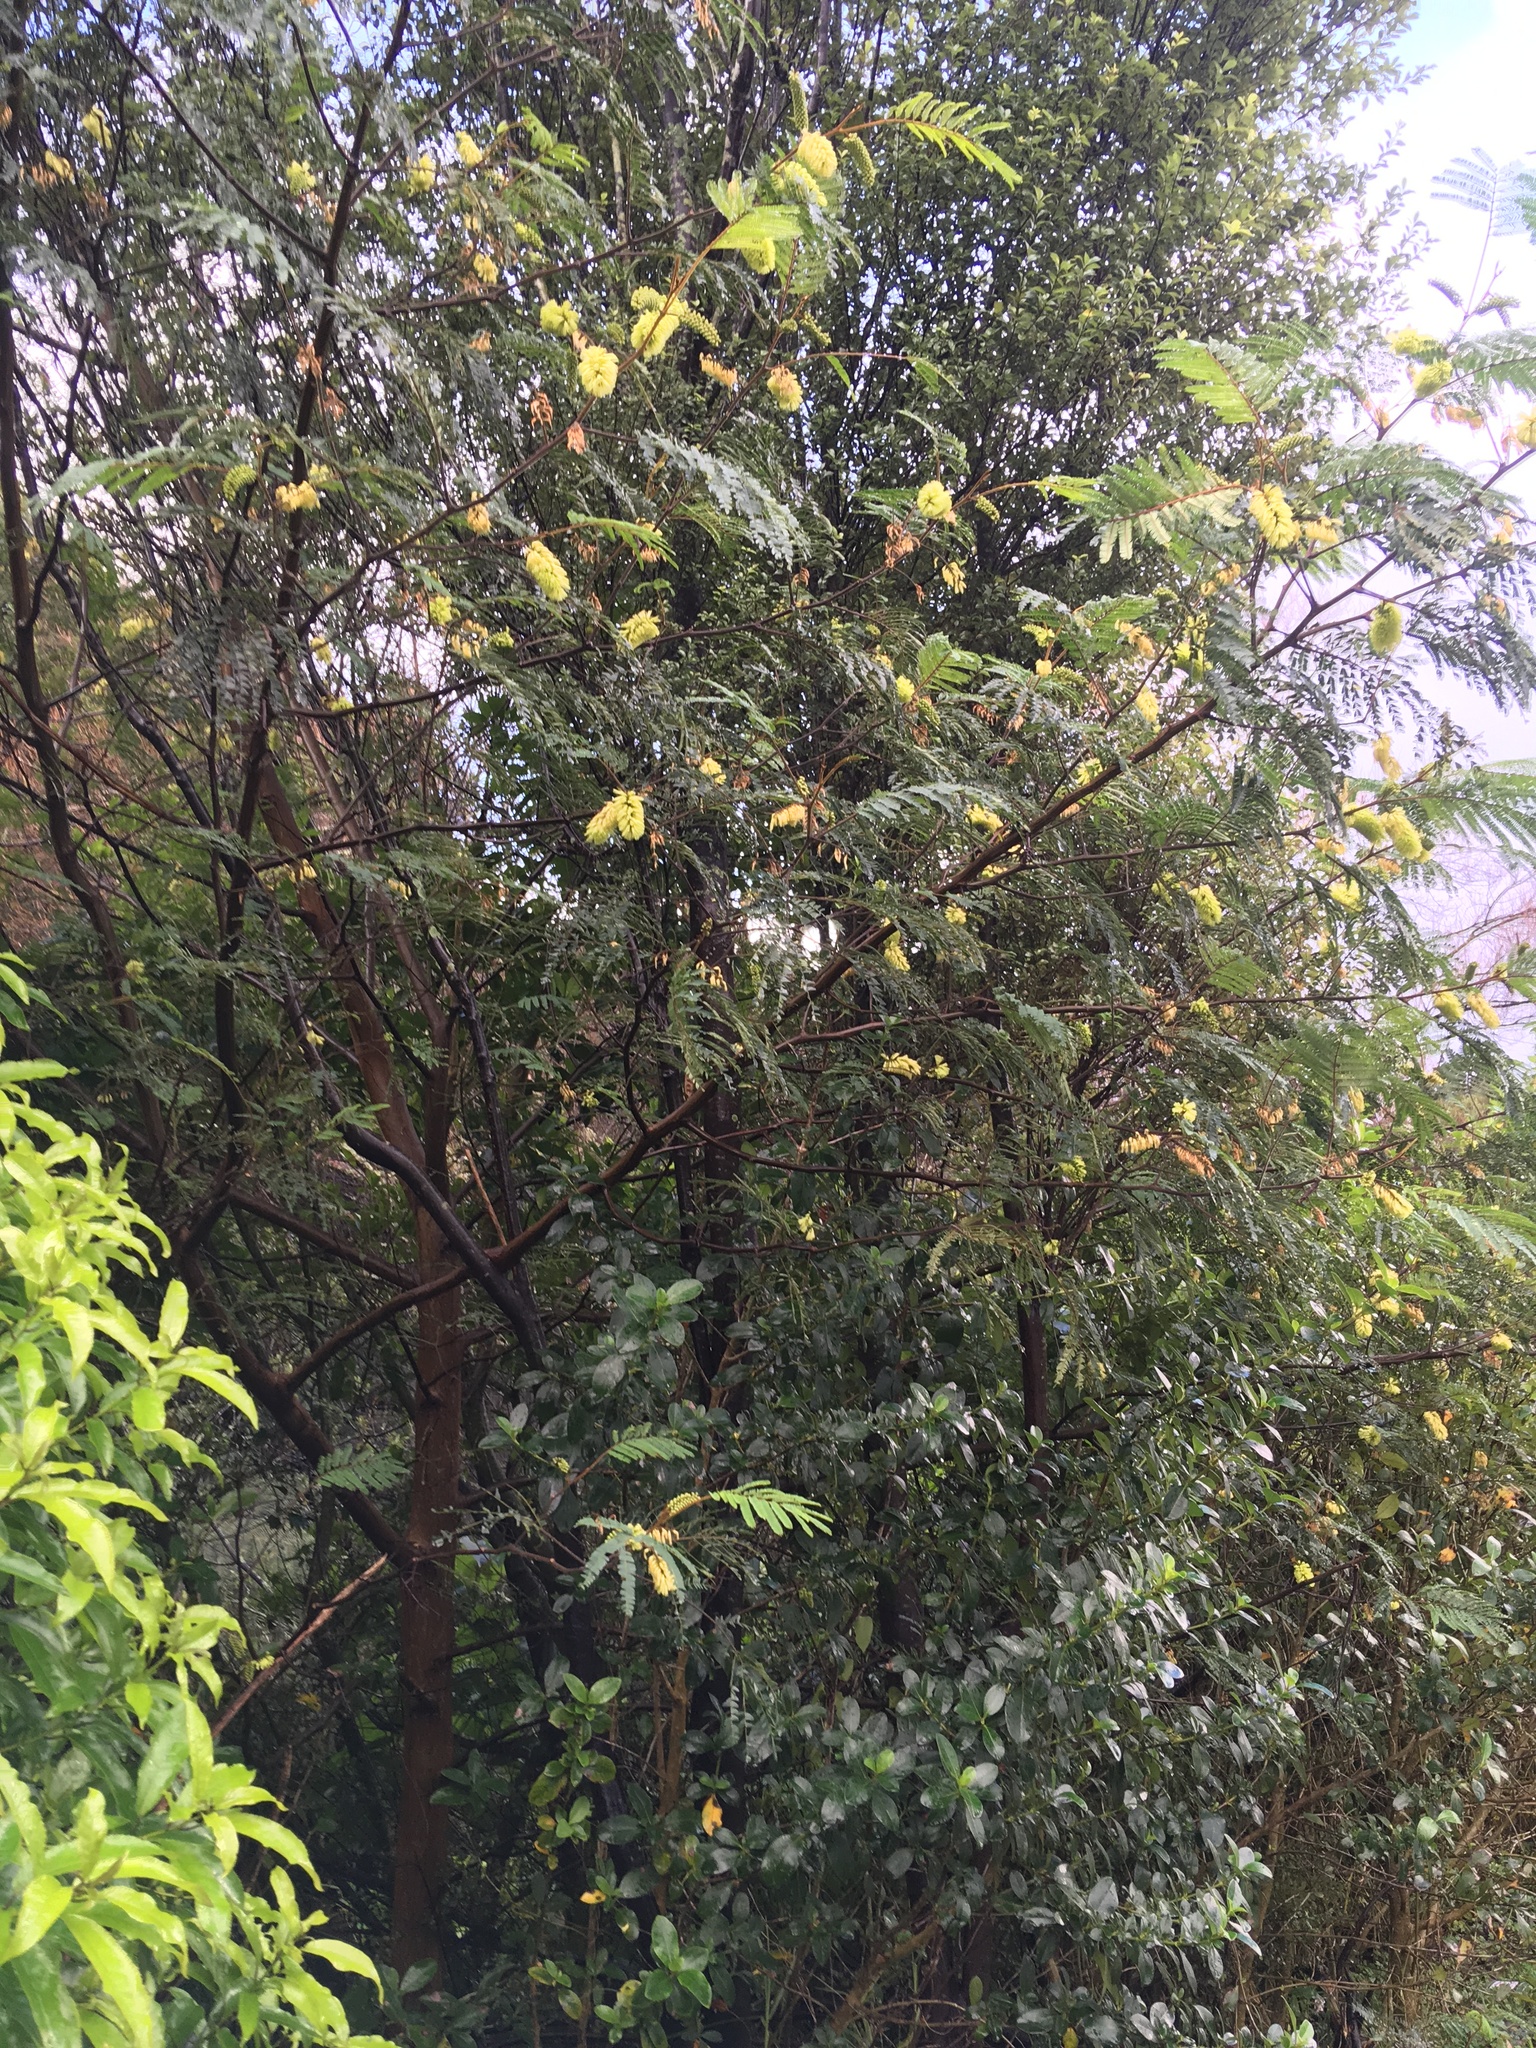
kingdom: Plantae
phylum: Tracheophyta
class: Magnoliopsida
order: Fabales
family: Fabaceae
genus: Paraserianthes
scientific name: Paraserianthes lophantha
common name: Plume albizia
